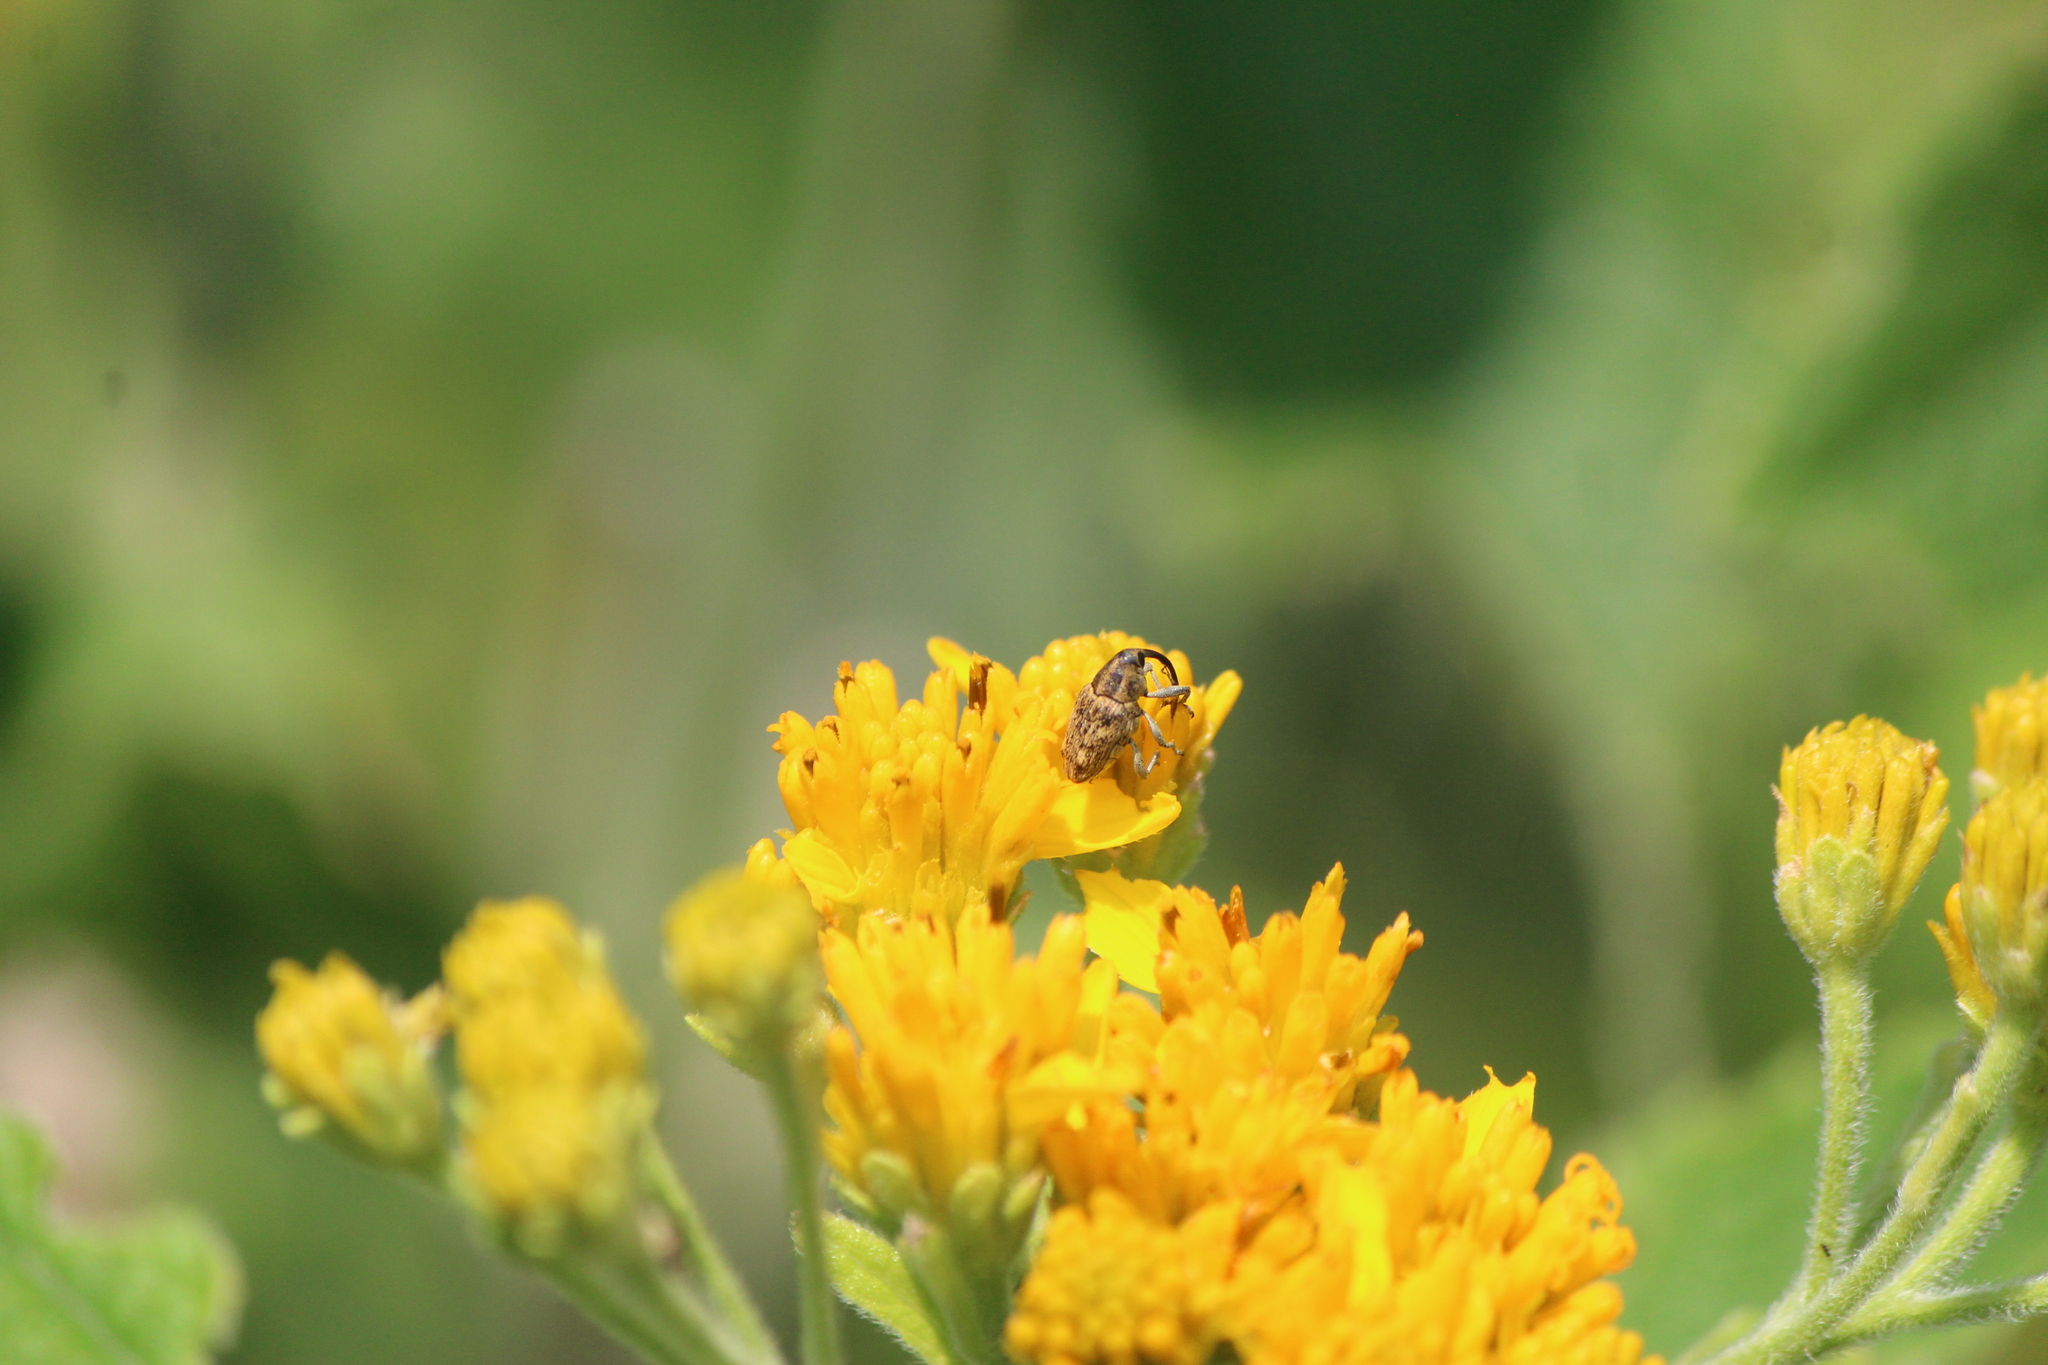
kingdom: Animalia
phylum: Arthropoda
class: Insecta
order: Coleoptera
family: Curculionidae
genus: Pseudocentrinus
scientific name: Pseudocentrinus ochraceus
